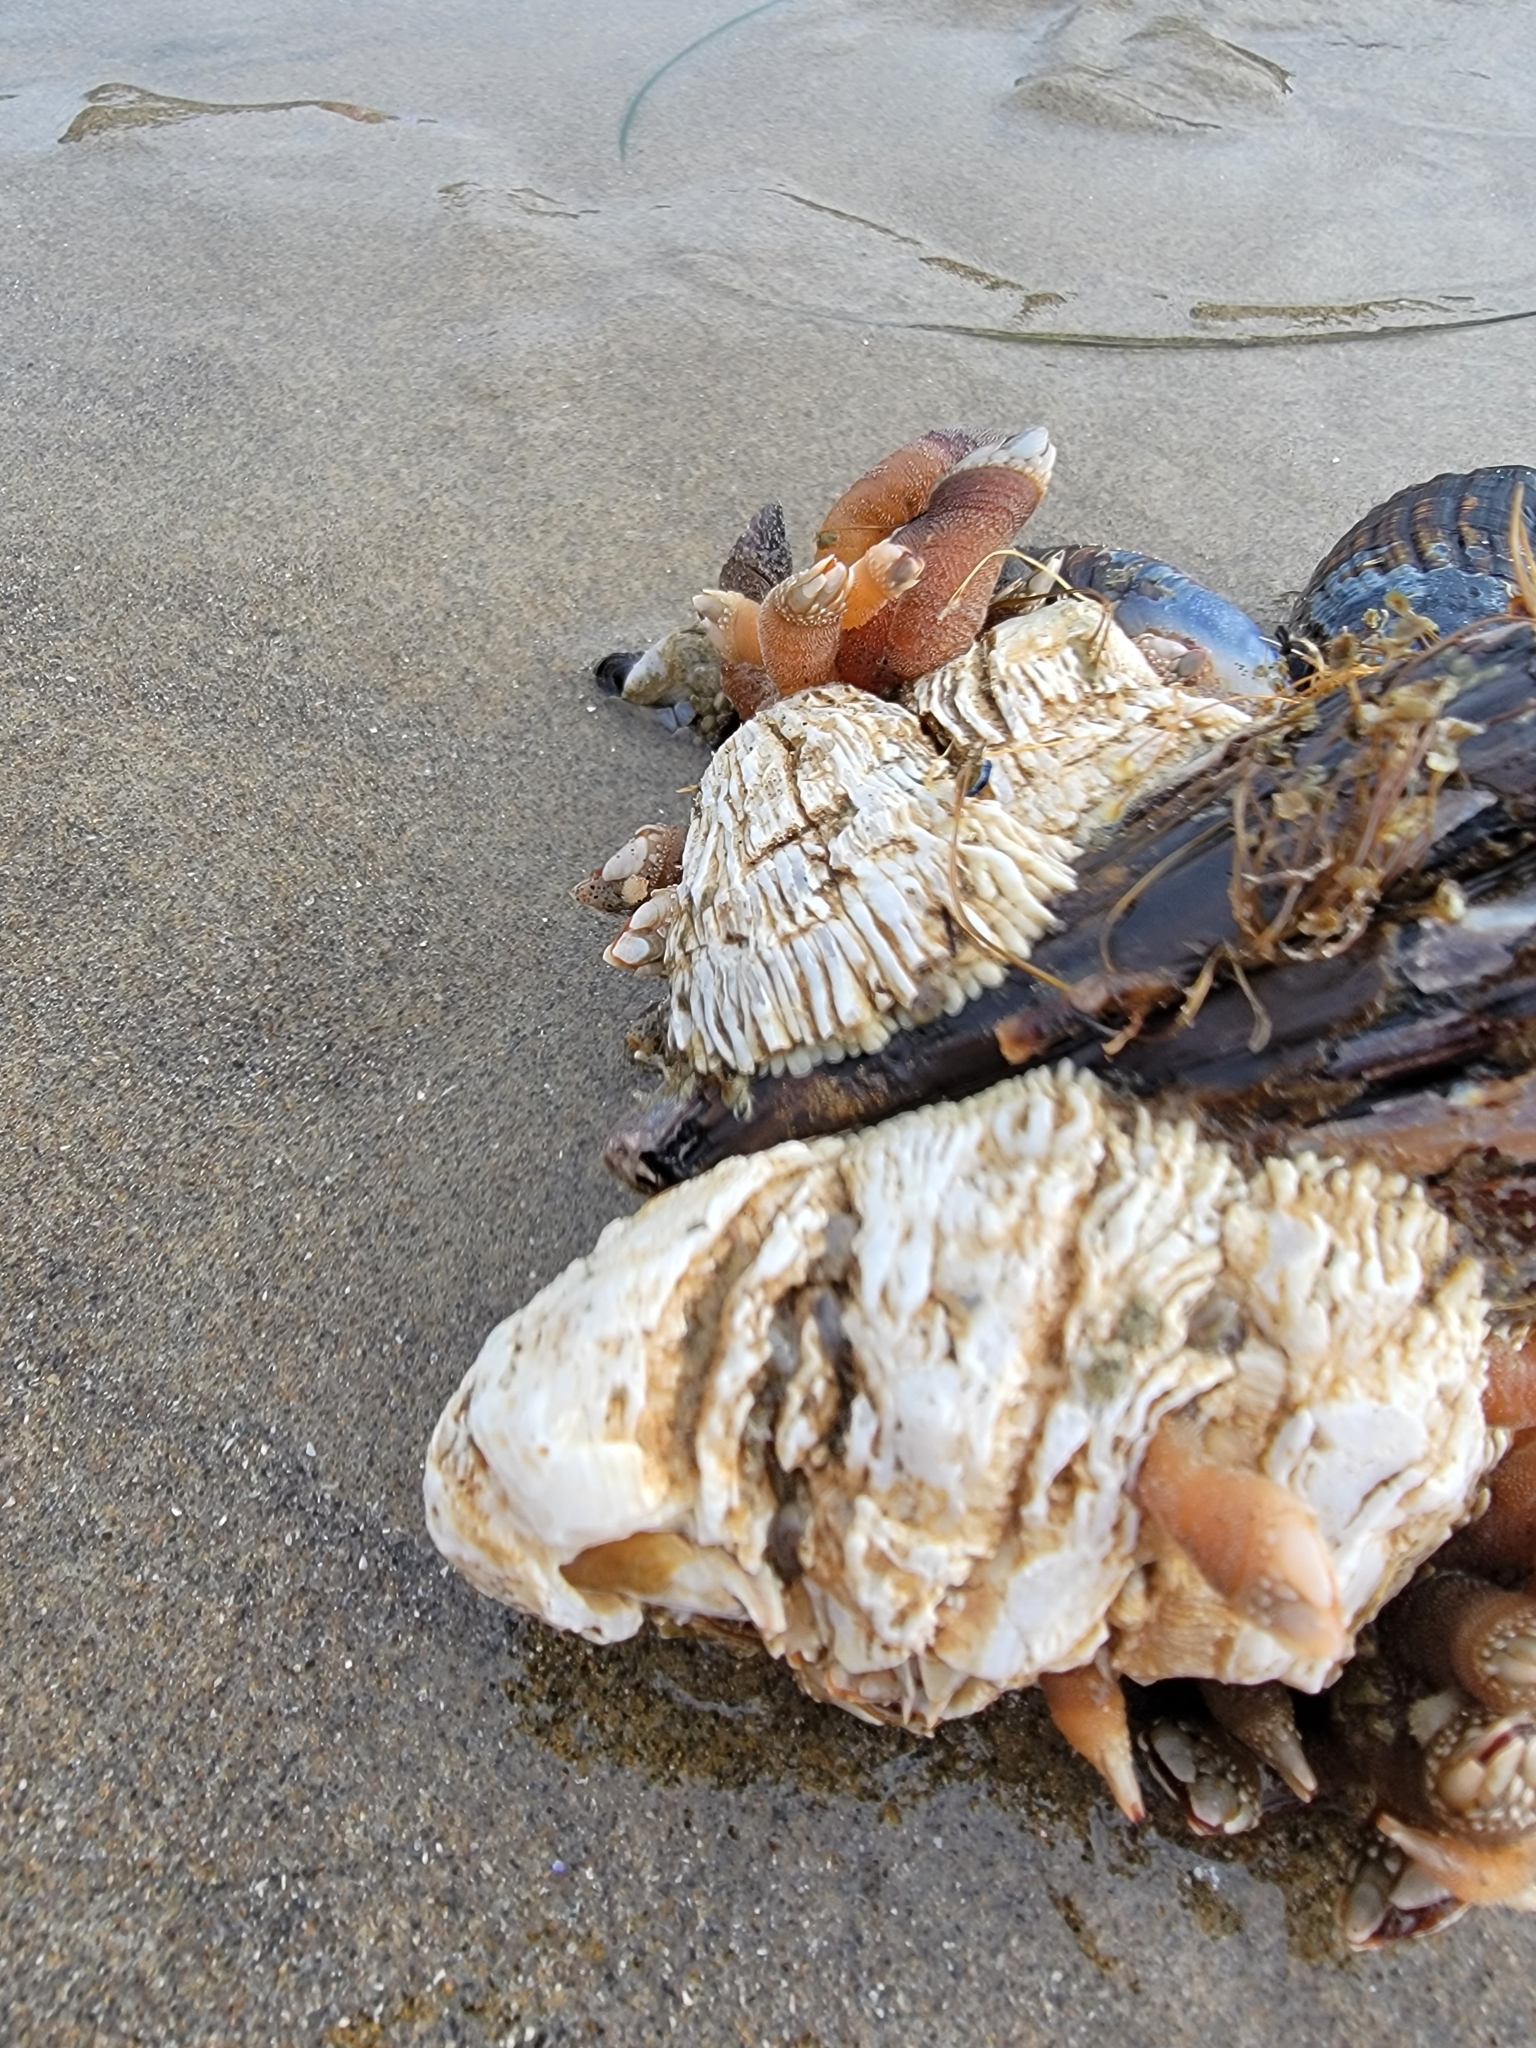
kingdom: Animalia
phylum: Arthropoda
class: Maxillopoda
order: Sessilia
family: Archaeobalanidae
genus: Semibalanus
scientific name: Semibalanus cariosus
